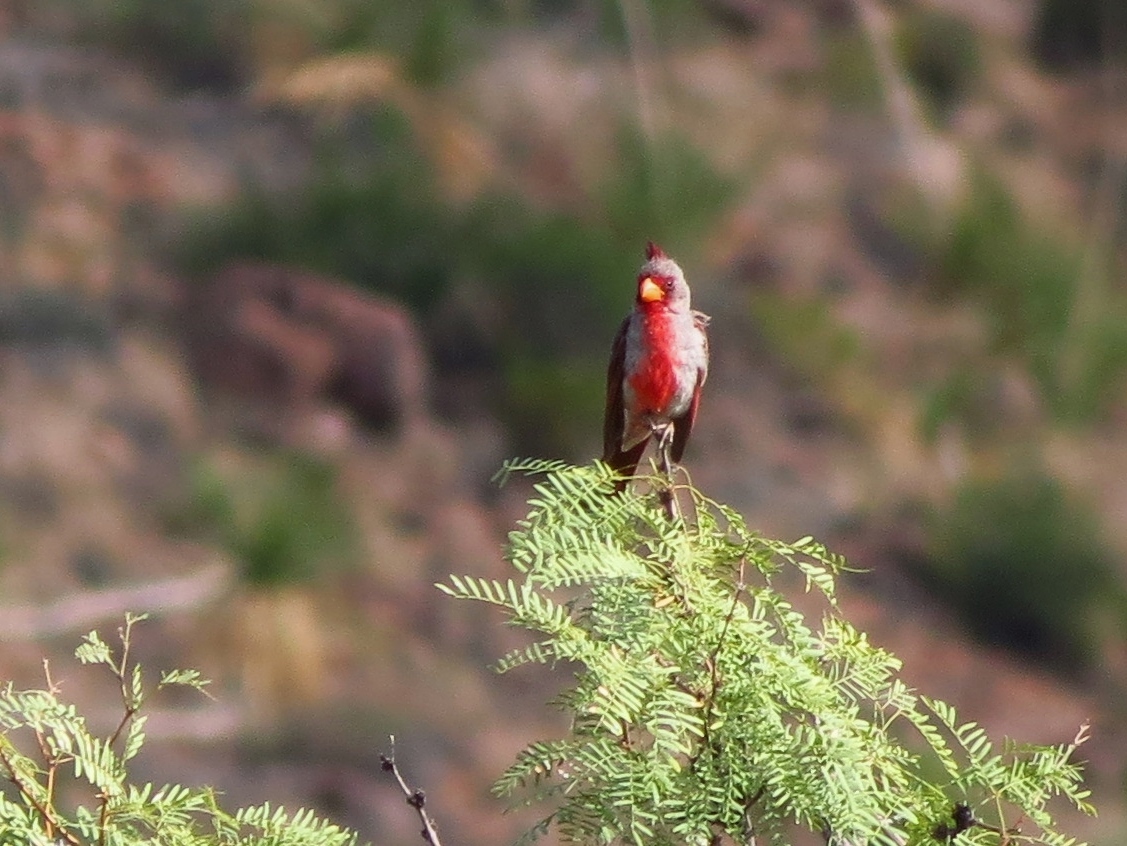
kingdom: Animalia
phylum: Chordata
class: Aves
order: Passeriformes
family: Cardinalidae
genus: Cardinalis
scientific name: Cardinalis sinuatus
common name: Pyrrhuloxia
